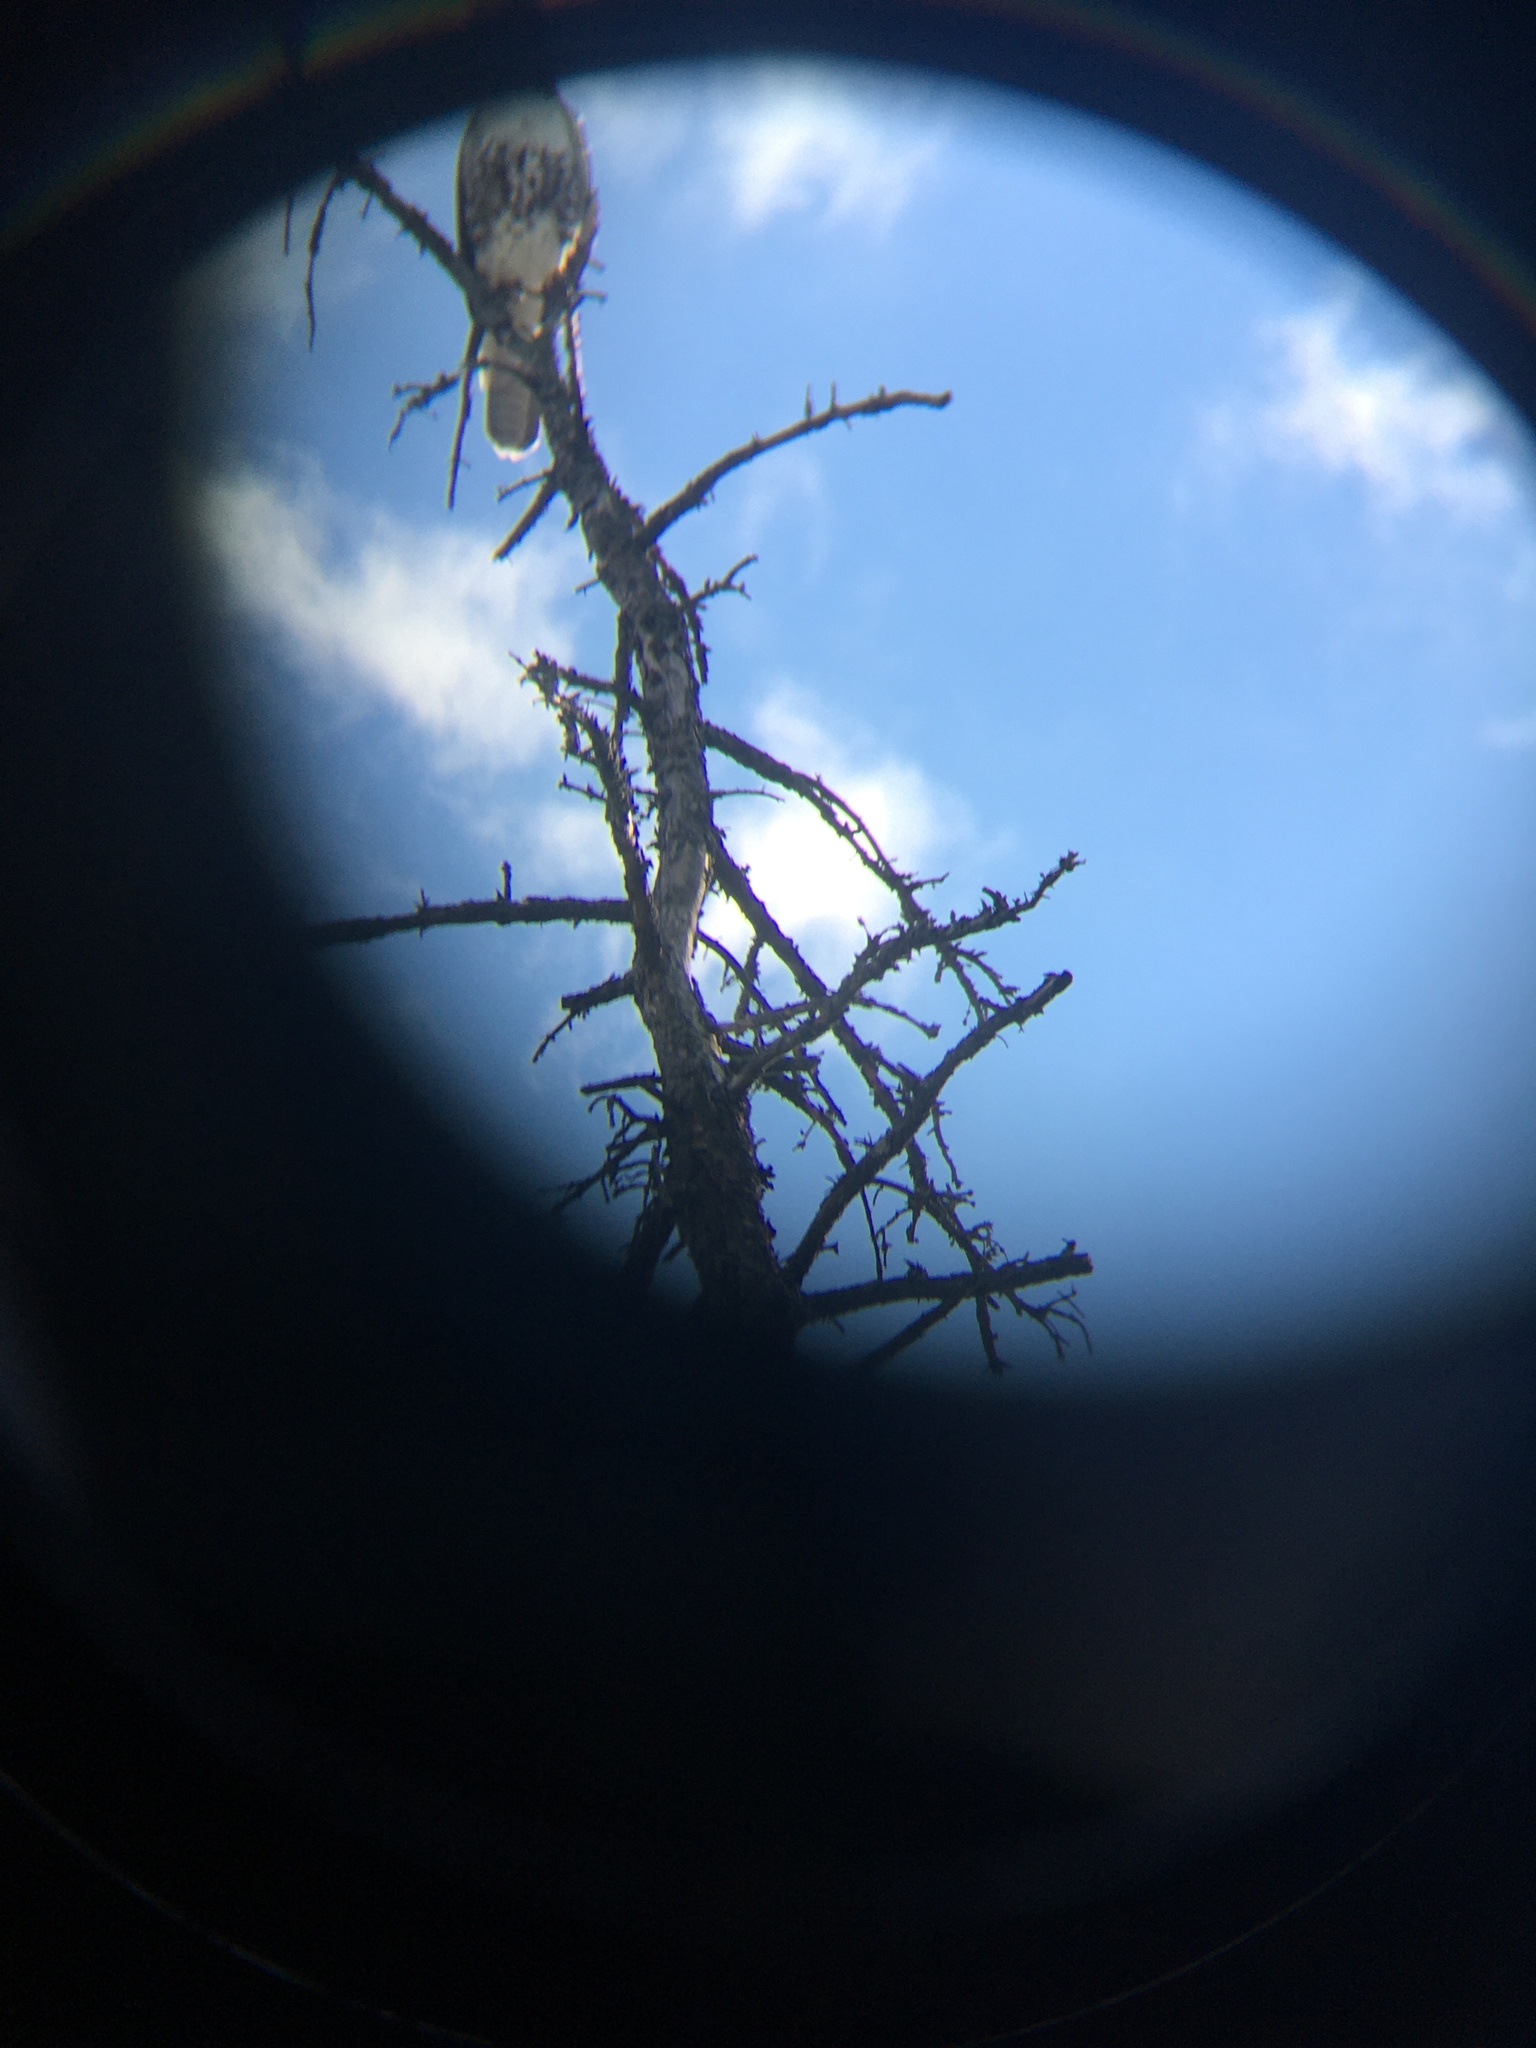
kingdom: Animalia
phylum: Chordata
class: Aves
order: Accipitriformes
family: Accipitridae
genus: Buteo
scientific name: Buteo jamaicensis
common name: Red-tailed hawk
